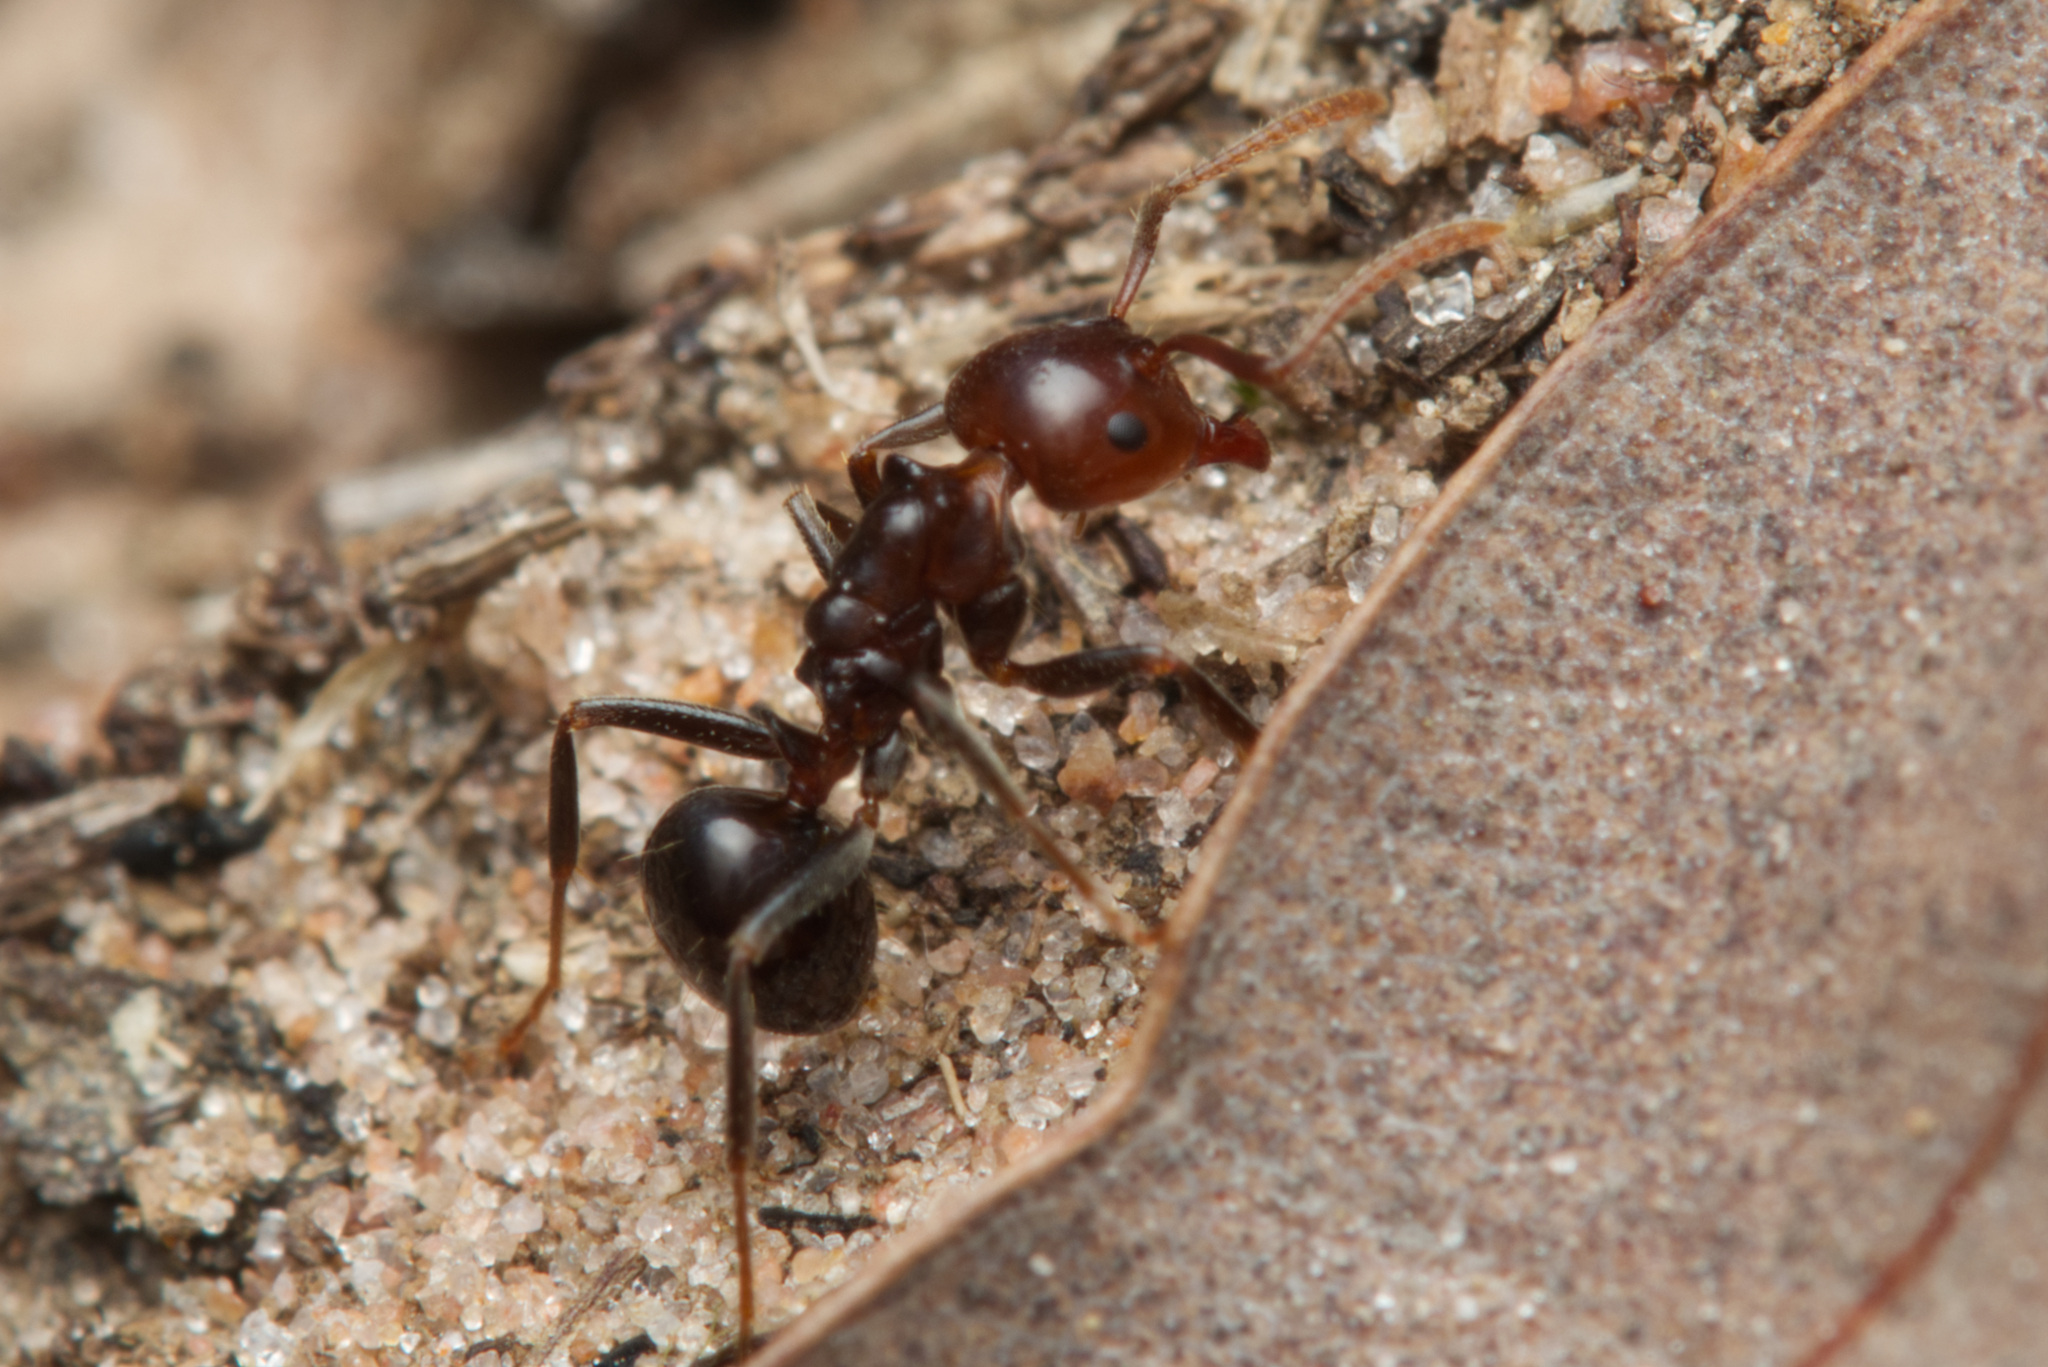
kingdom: Animalia
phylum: Arthropoda
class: Insecta
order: Hymenoptera
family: Formicidae
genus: Notoncus
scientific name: Notoncus gilberti
